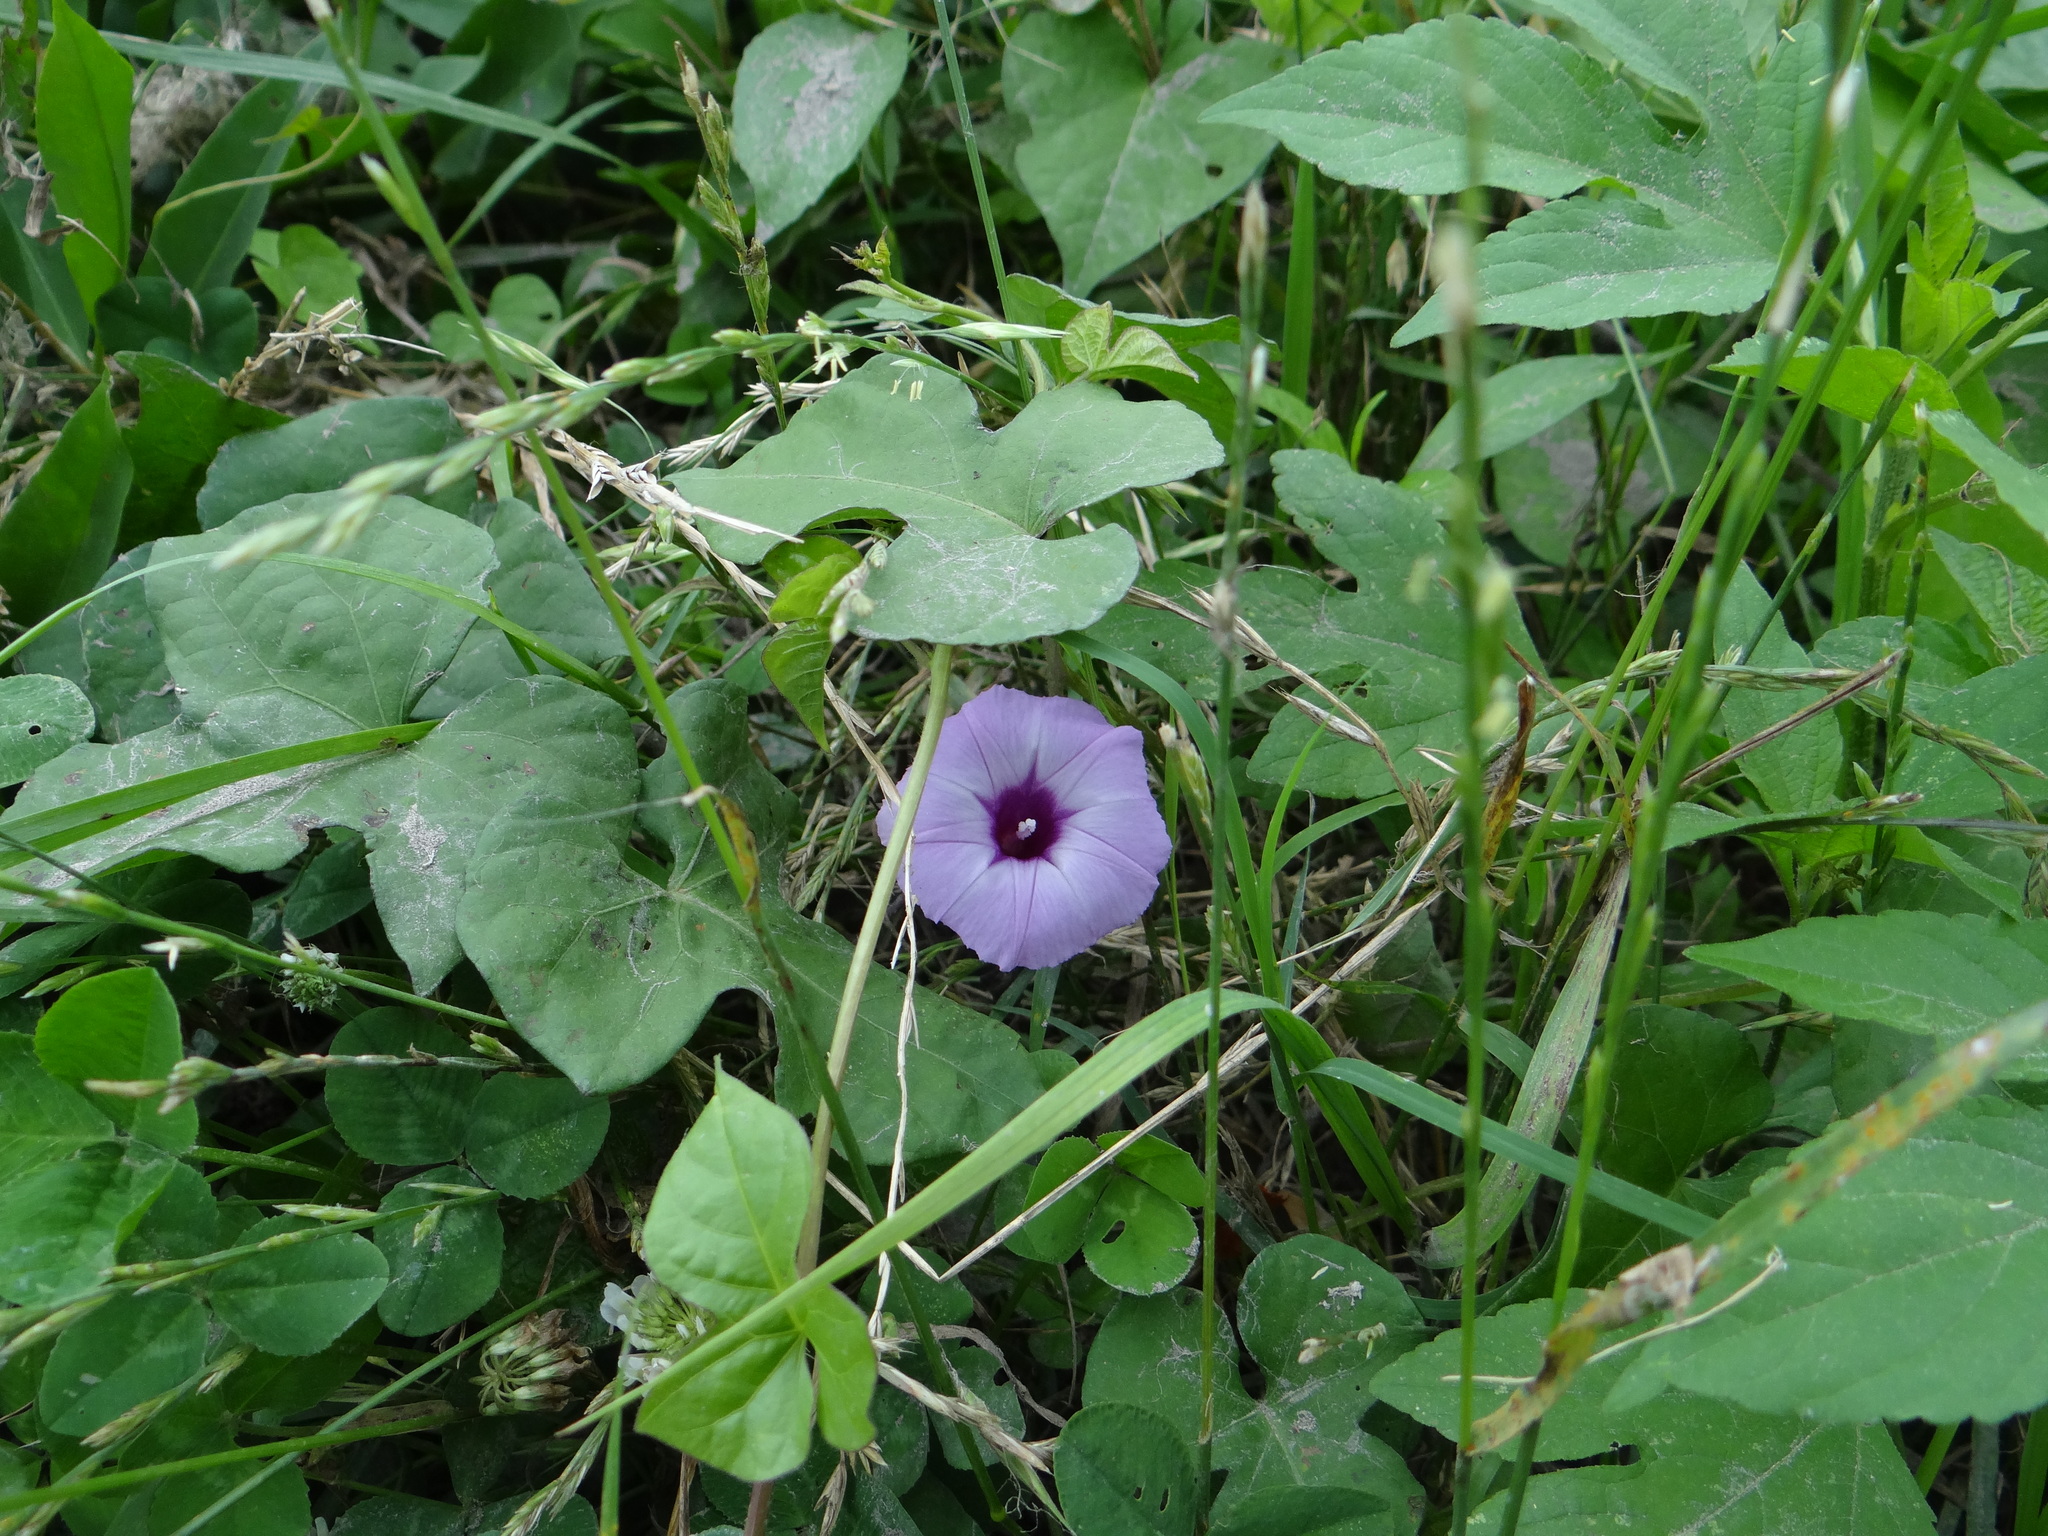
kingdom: Plantae
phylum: Tracheophyta
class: Magnoliopsida
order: Solanales
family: Convolvulaceae
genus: Ipomoea
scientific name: Ipomoea cordatotriloba
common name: Cotton morning glory
